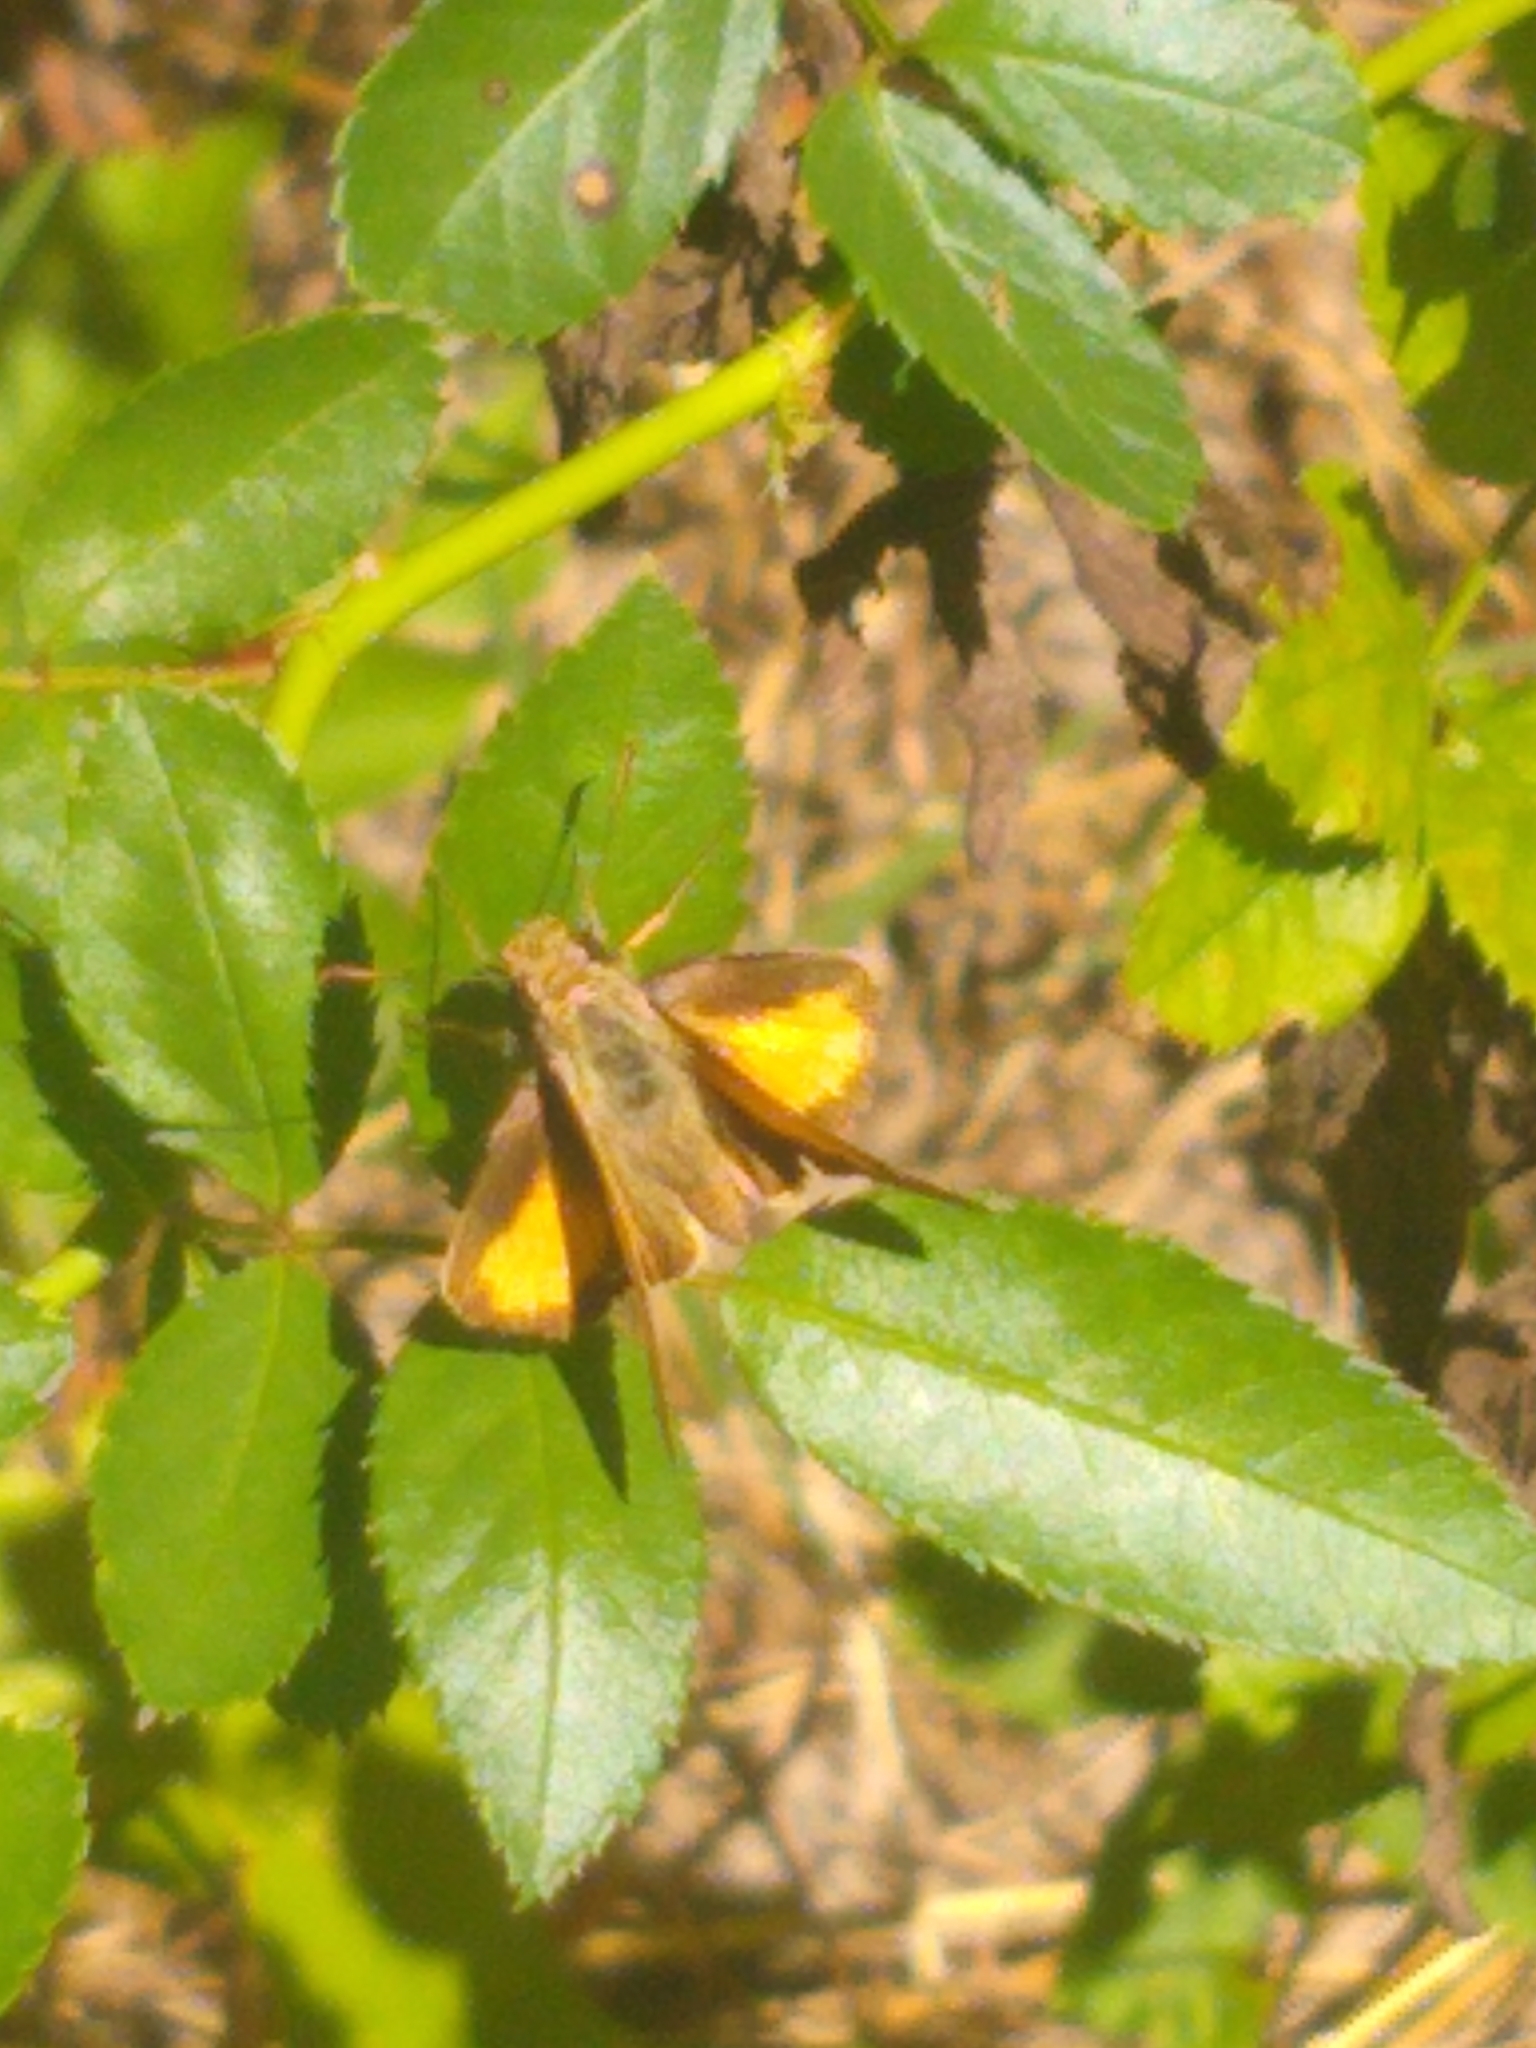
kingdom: Animalia
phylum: Arthropoda
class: Insecta
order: Lepidoptera
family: Hesperiidae
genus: Lon
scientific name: Lon zabulon
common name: Zabulon skipper
